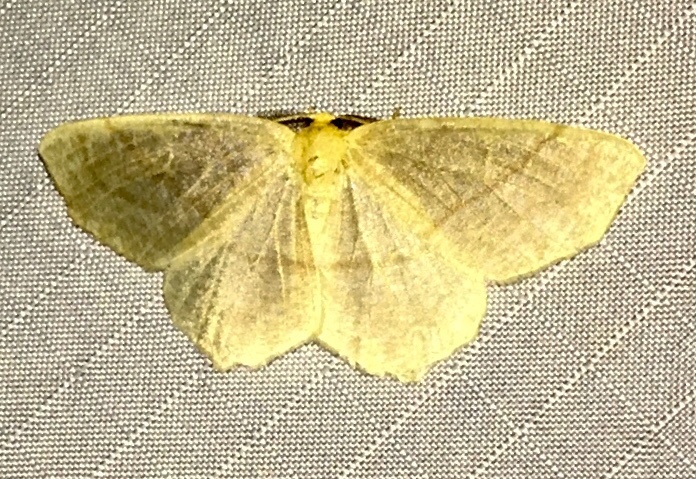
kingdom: Animalia
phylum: Arthropoda
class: Insecta
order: Lepidoptera
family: Geometridae
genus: Besma
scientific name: Besma endropiaria
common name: Straw besma
